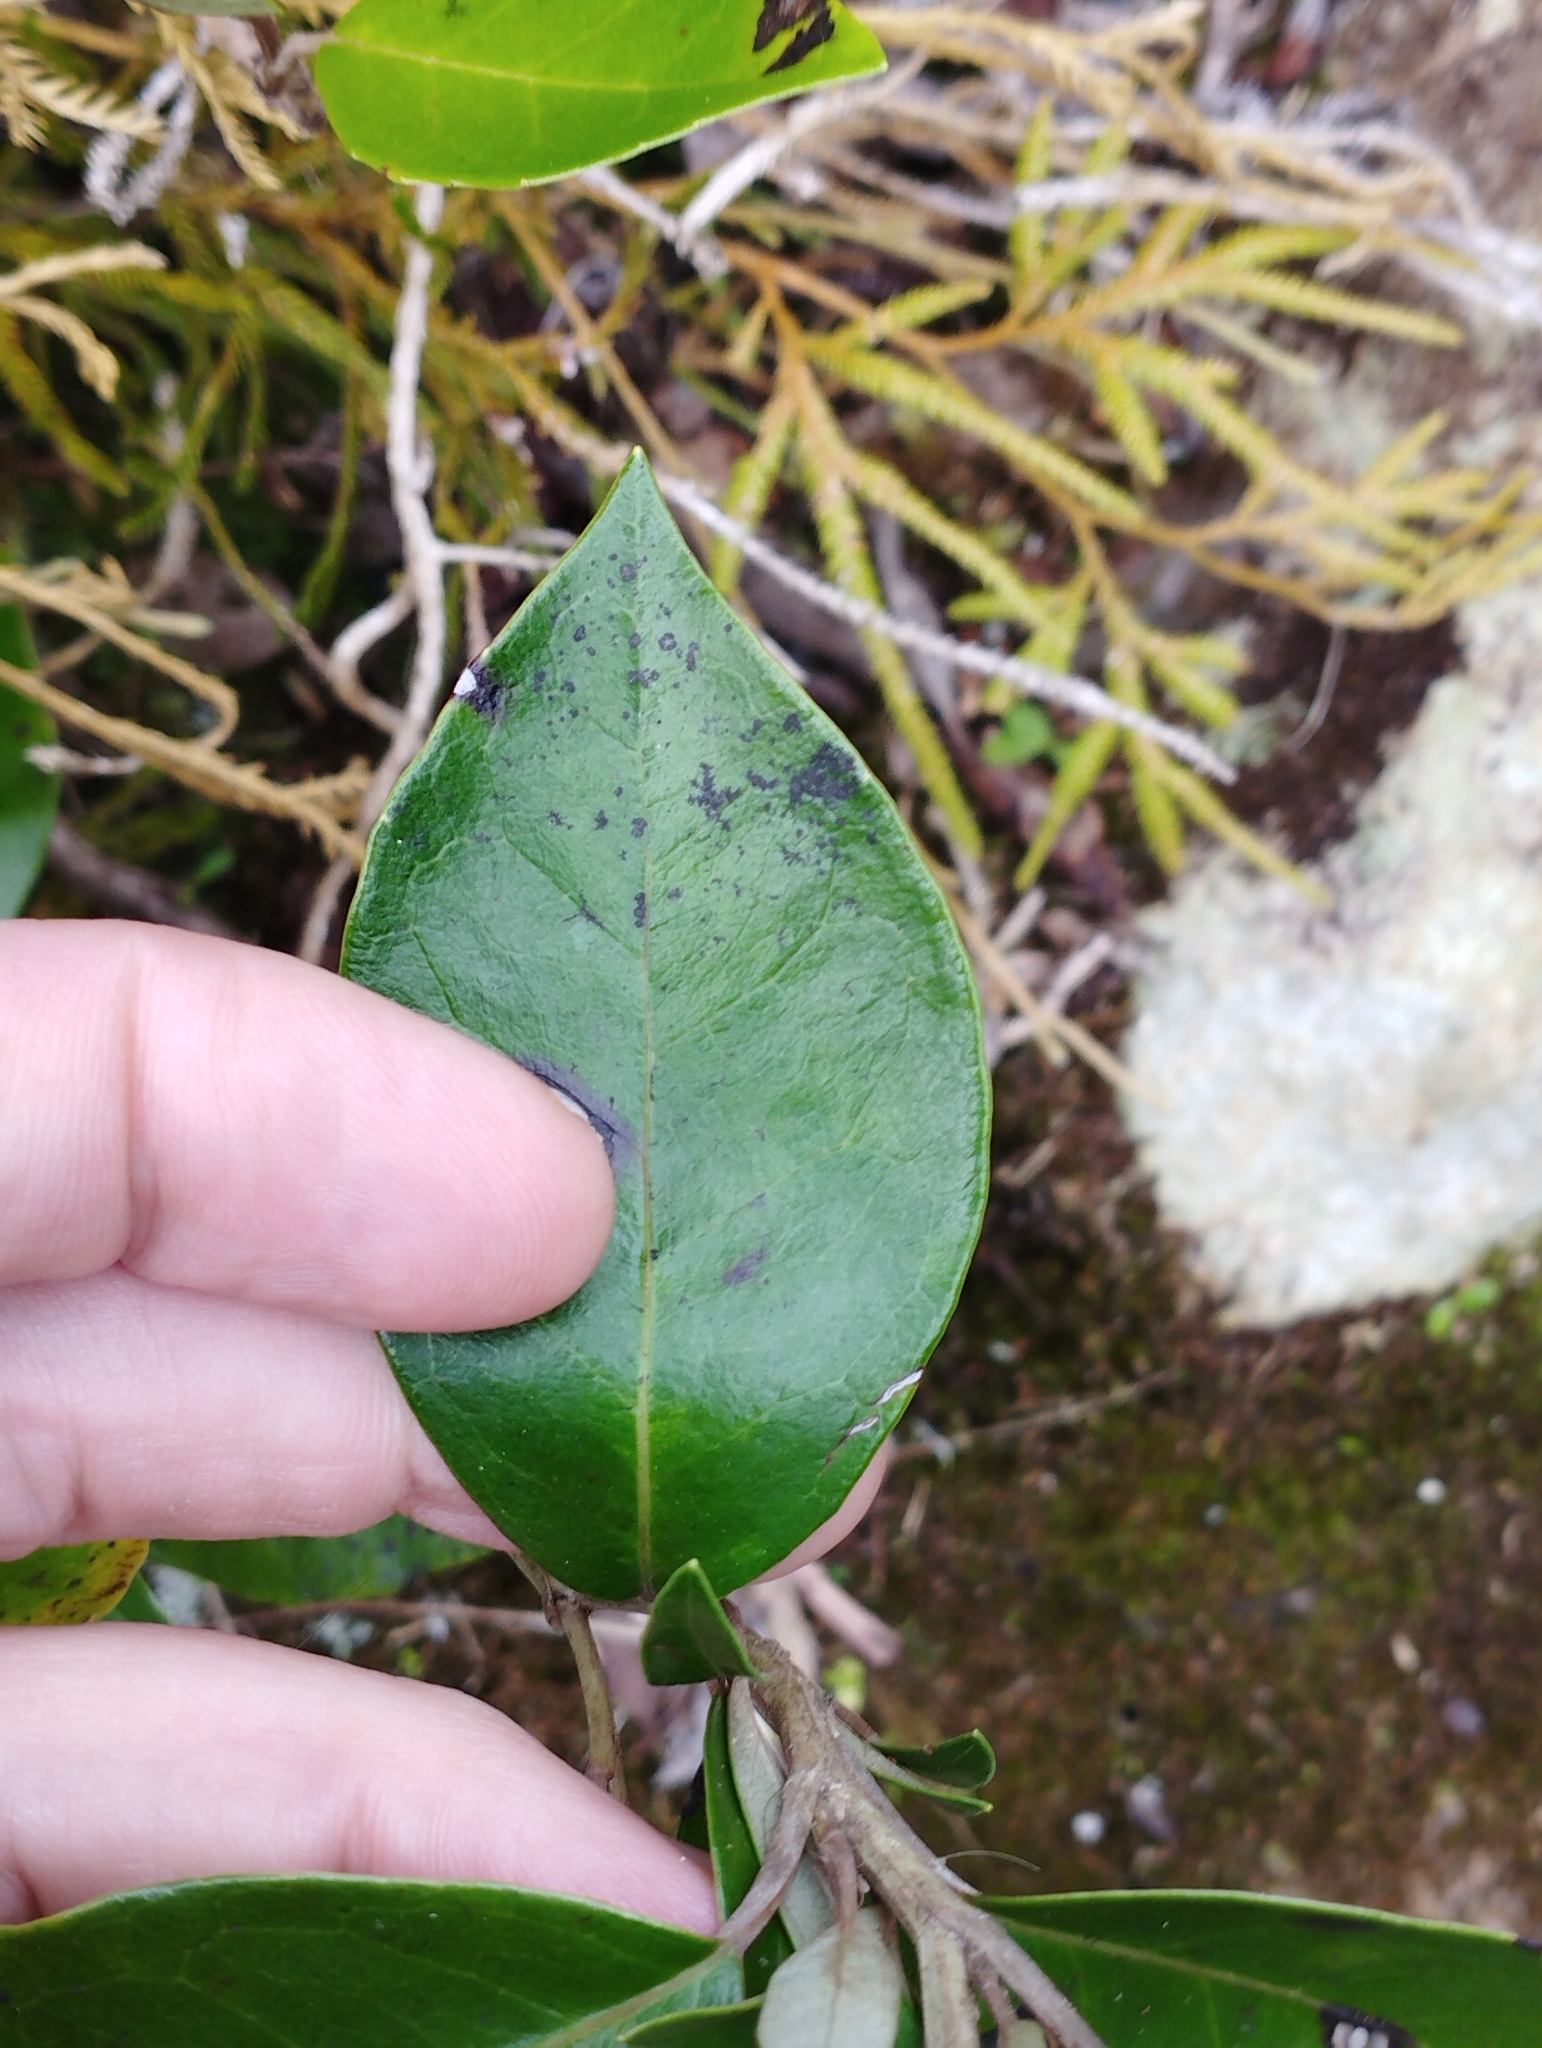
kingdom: Plantae
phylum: Tracheophyta
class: Magnoliopsida
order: Asterales
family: Asteraceae
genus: Olearia
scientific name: Olearia arborescens
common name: Glossy tree daisy
